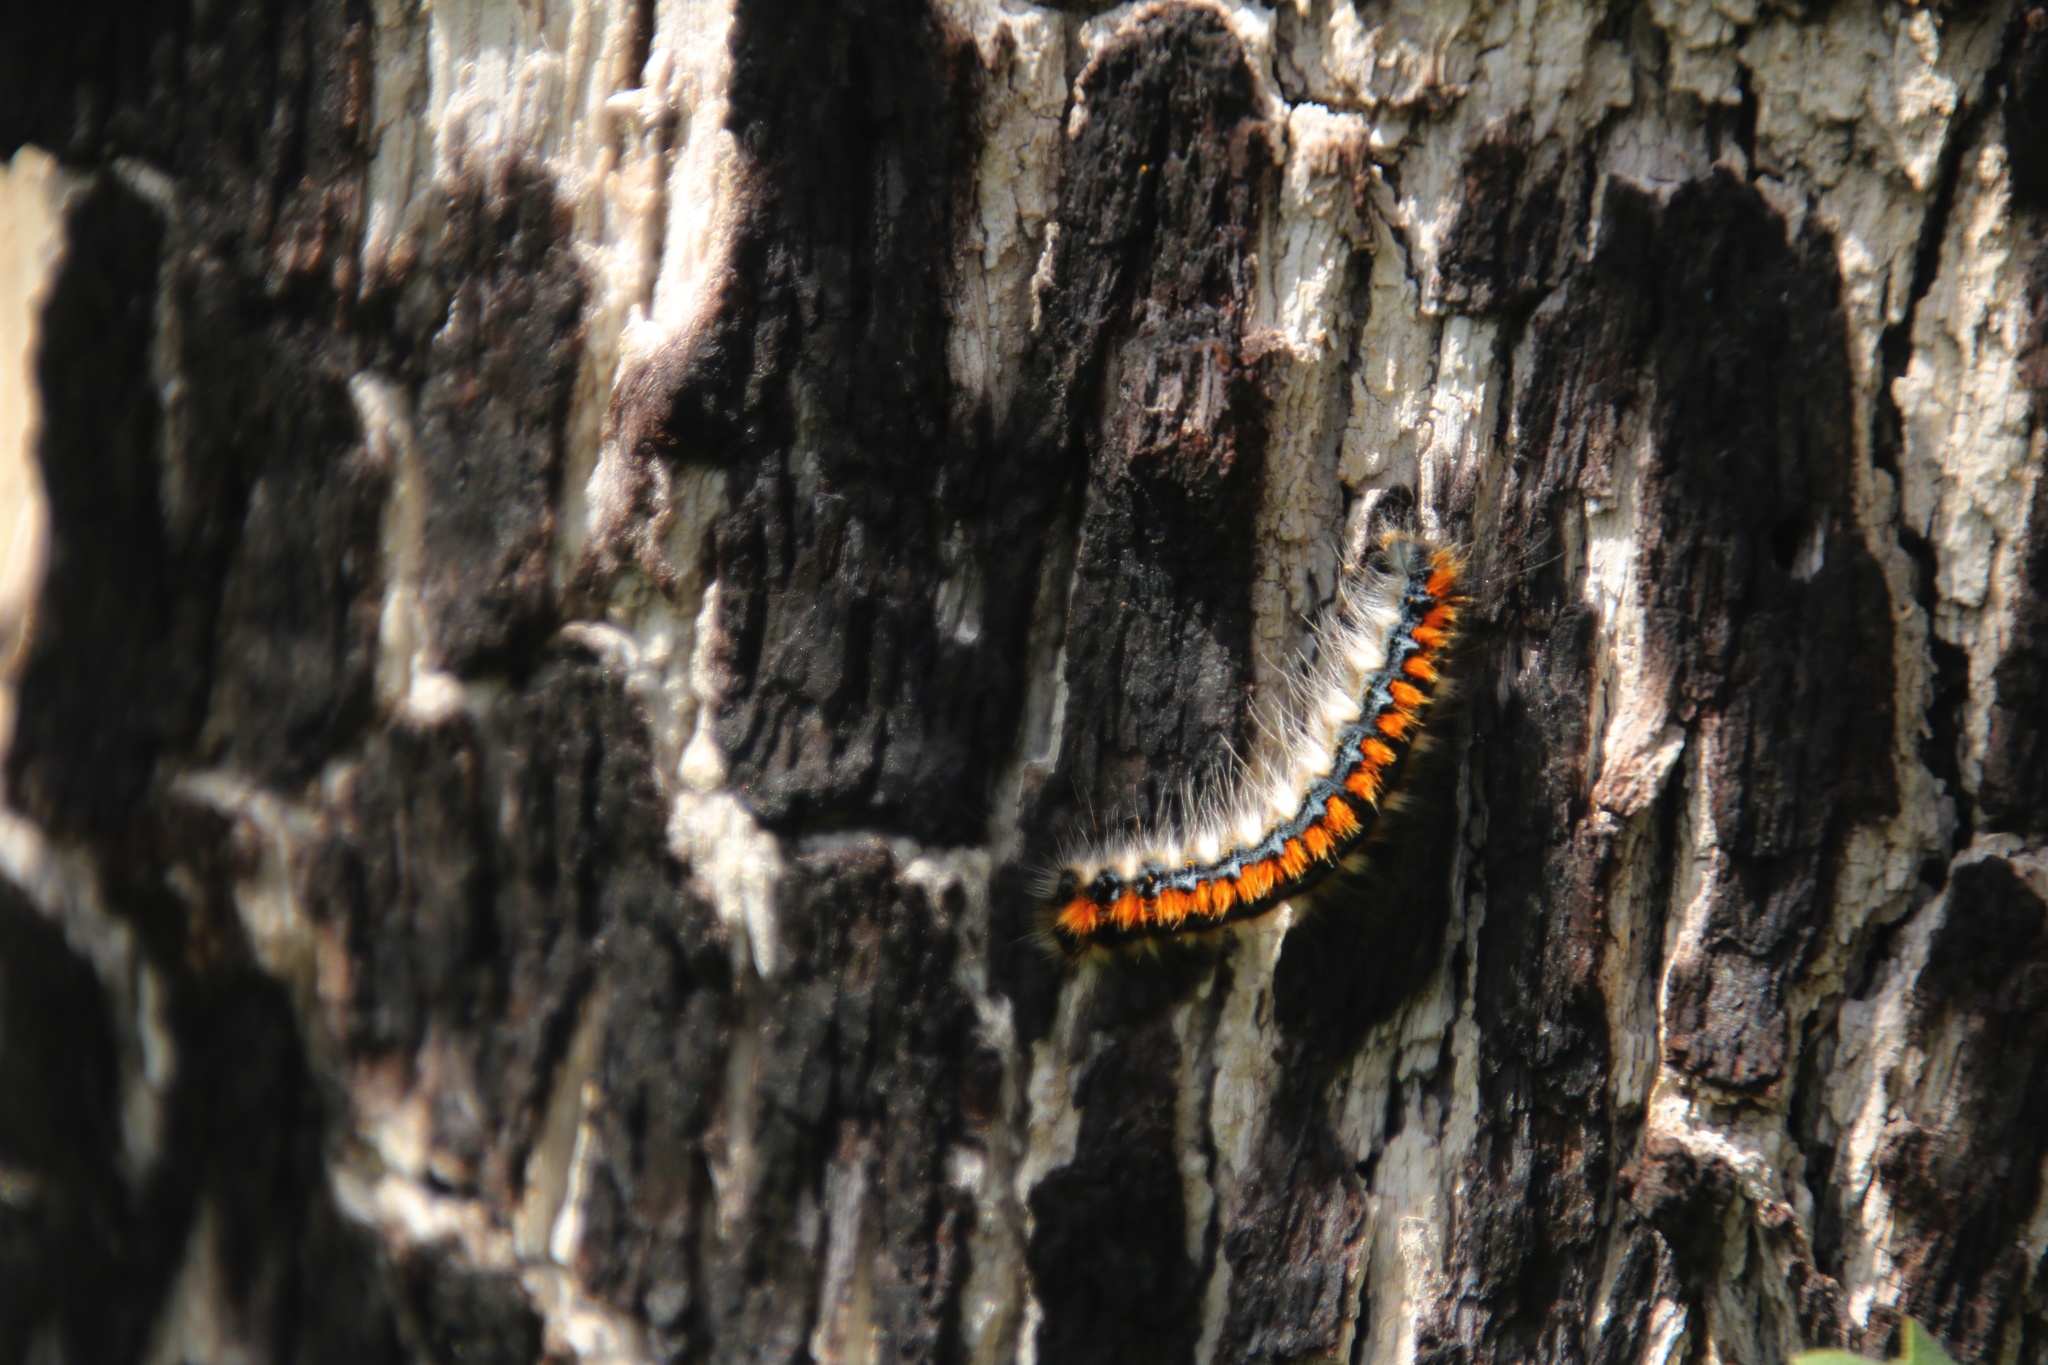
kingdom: Animalia
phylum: Arthropoda
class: Insecta
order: Lepidoptera
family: Lasiocampidae
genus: Malacosoma
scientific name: Malacosoma constricta
